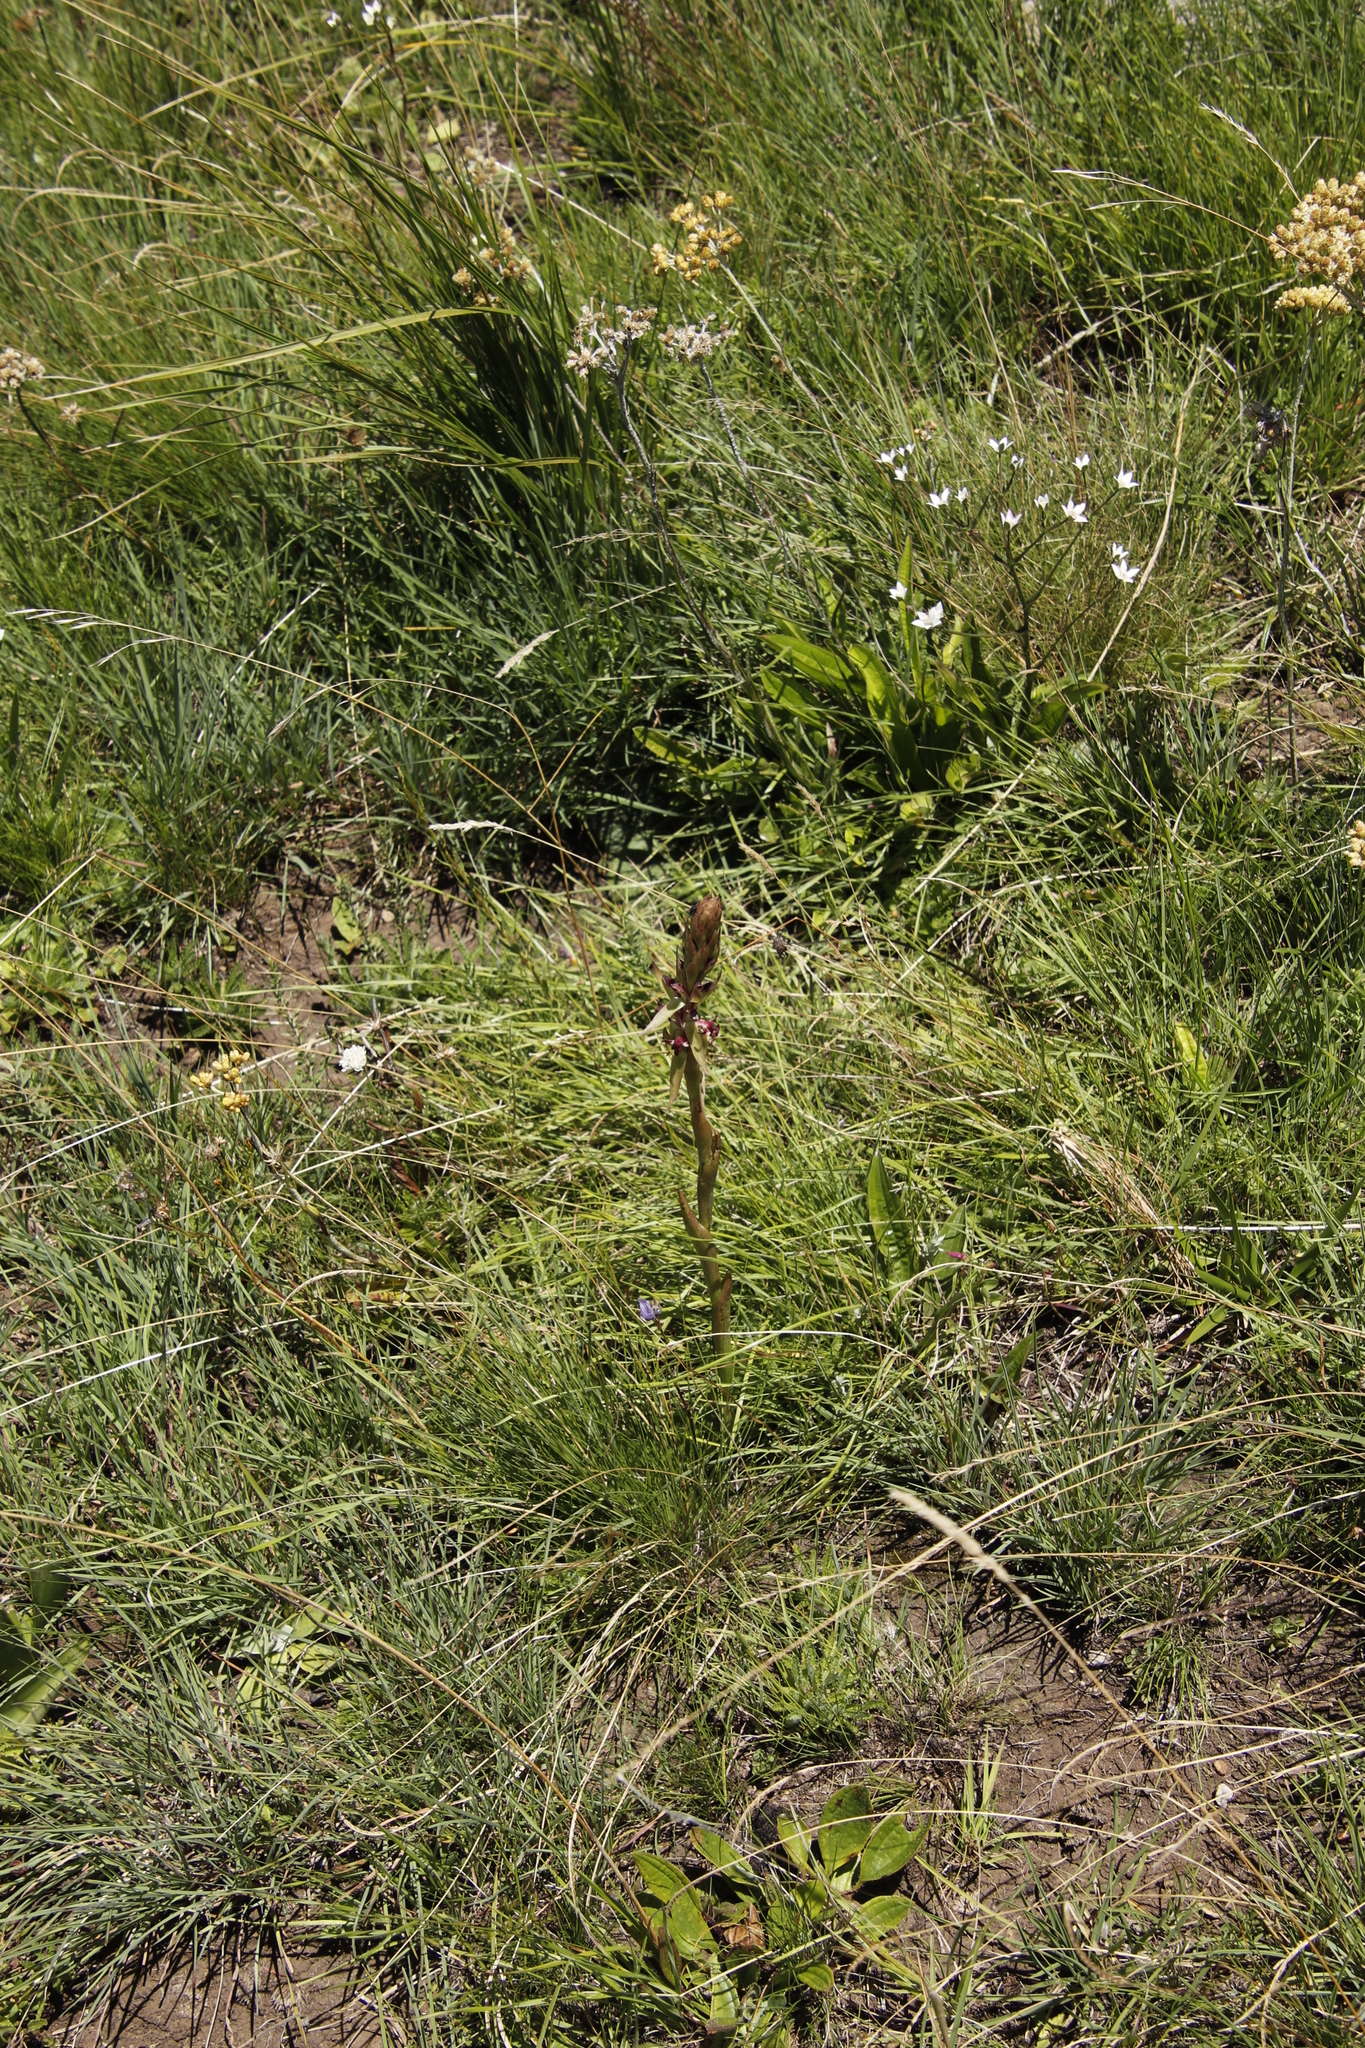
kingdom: Plantae
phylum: Tracheophyta
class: Liliopsida
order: Asparagales
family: Orchidaceae
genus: Satyrium
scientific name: Satyrium longicauda
